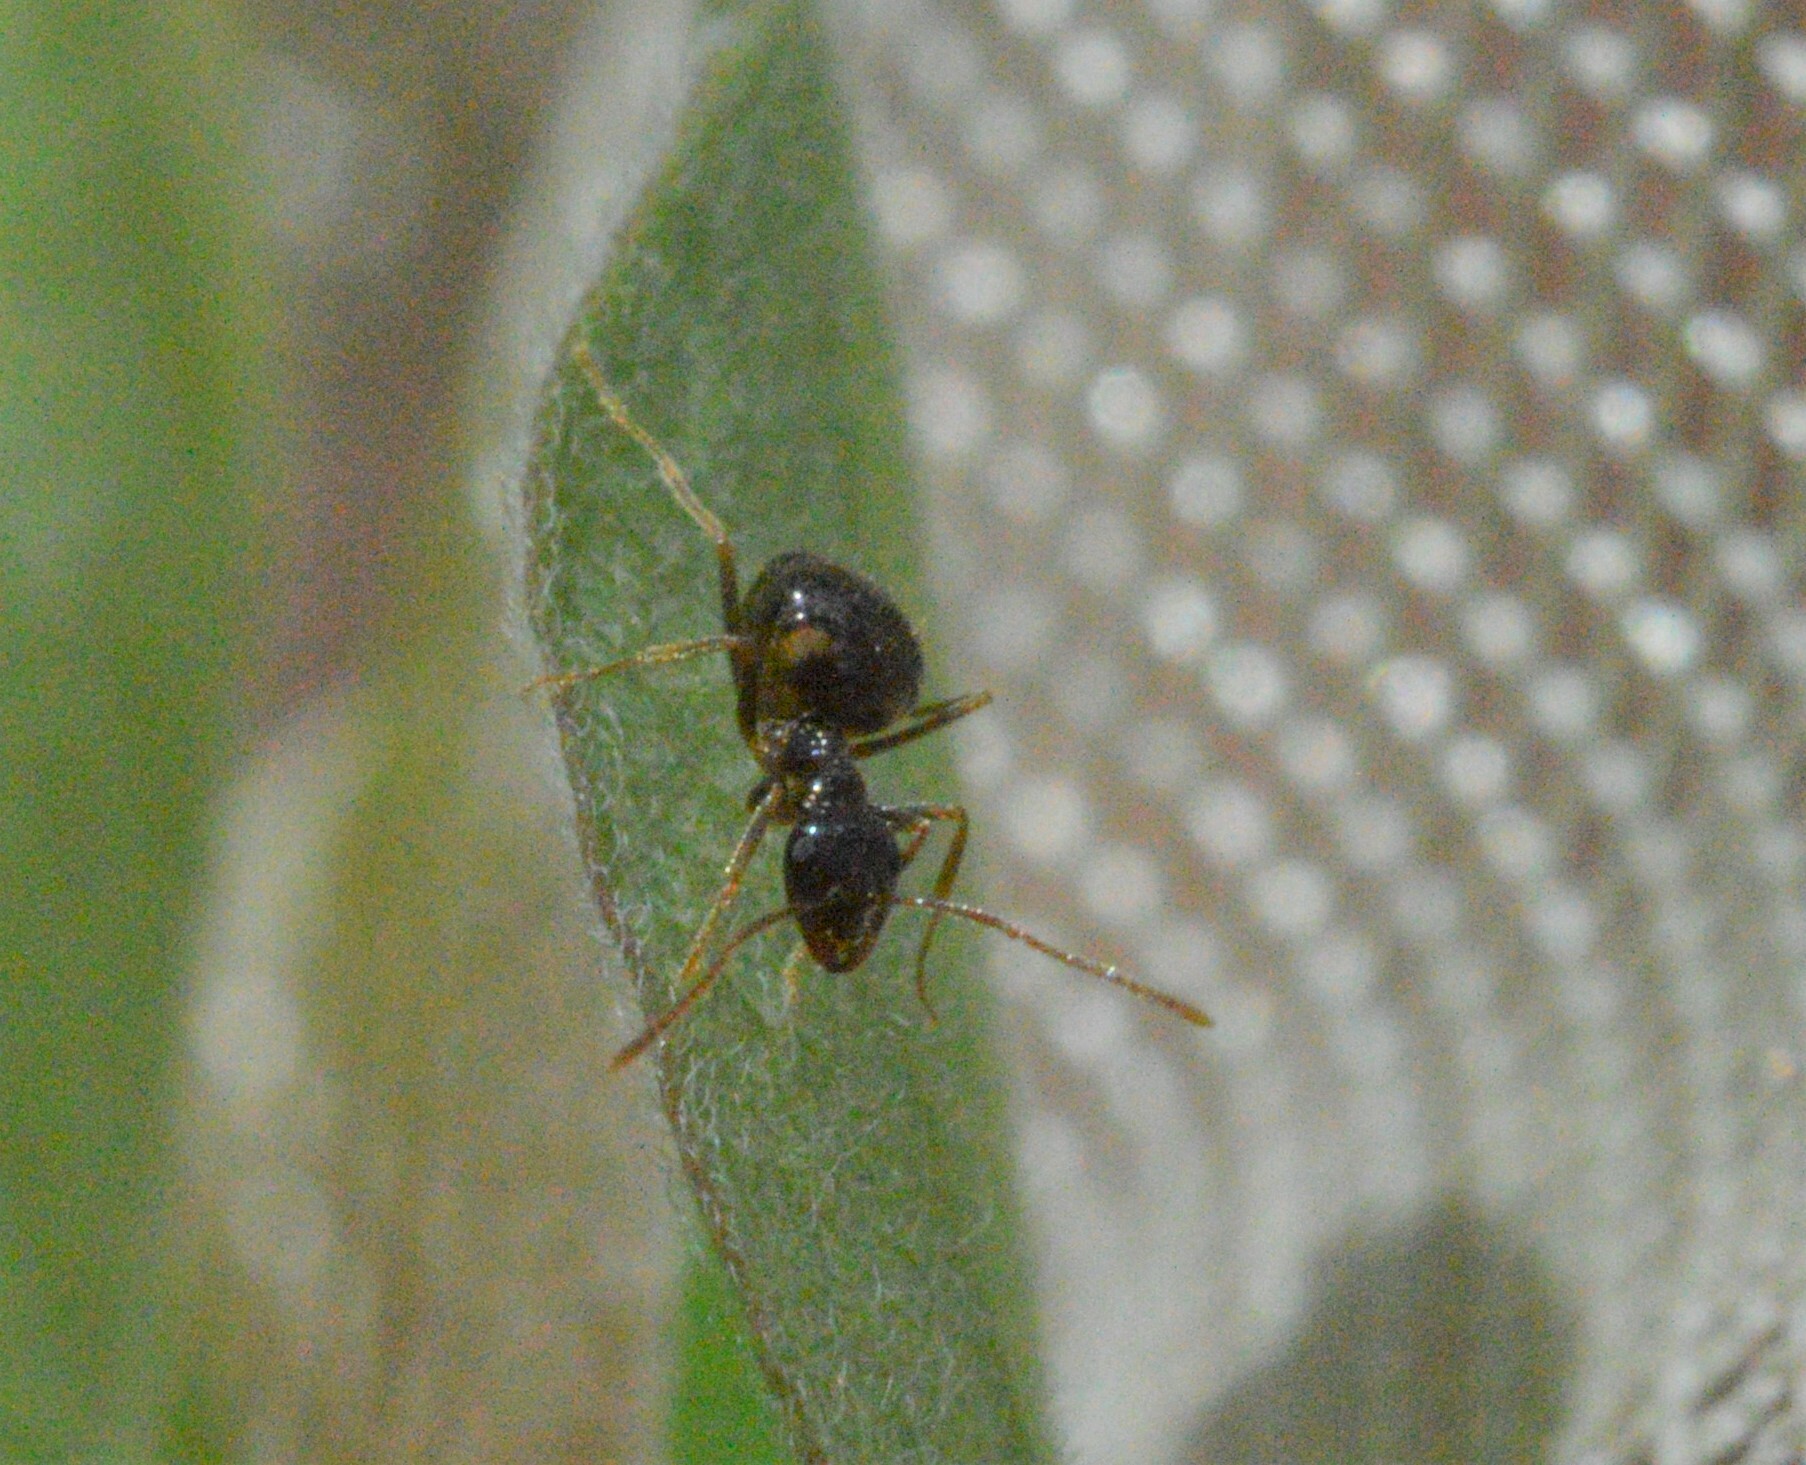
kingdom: Animalia
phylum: Arthropoda
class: Insecta
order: Hymenoptera
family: Formicidae
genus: Prenolepis
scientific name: Prenolepis imparis
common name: Small honey ant
